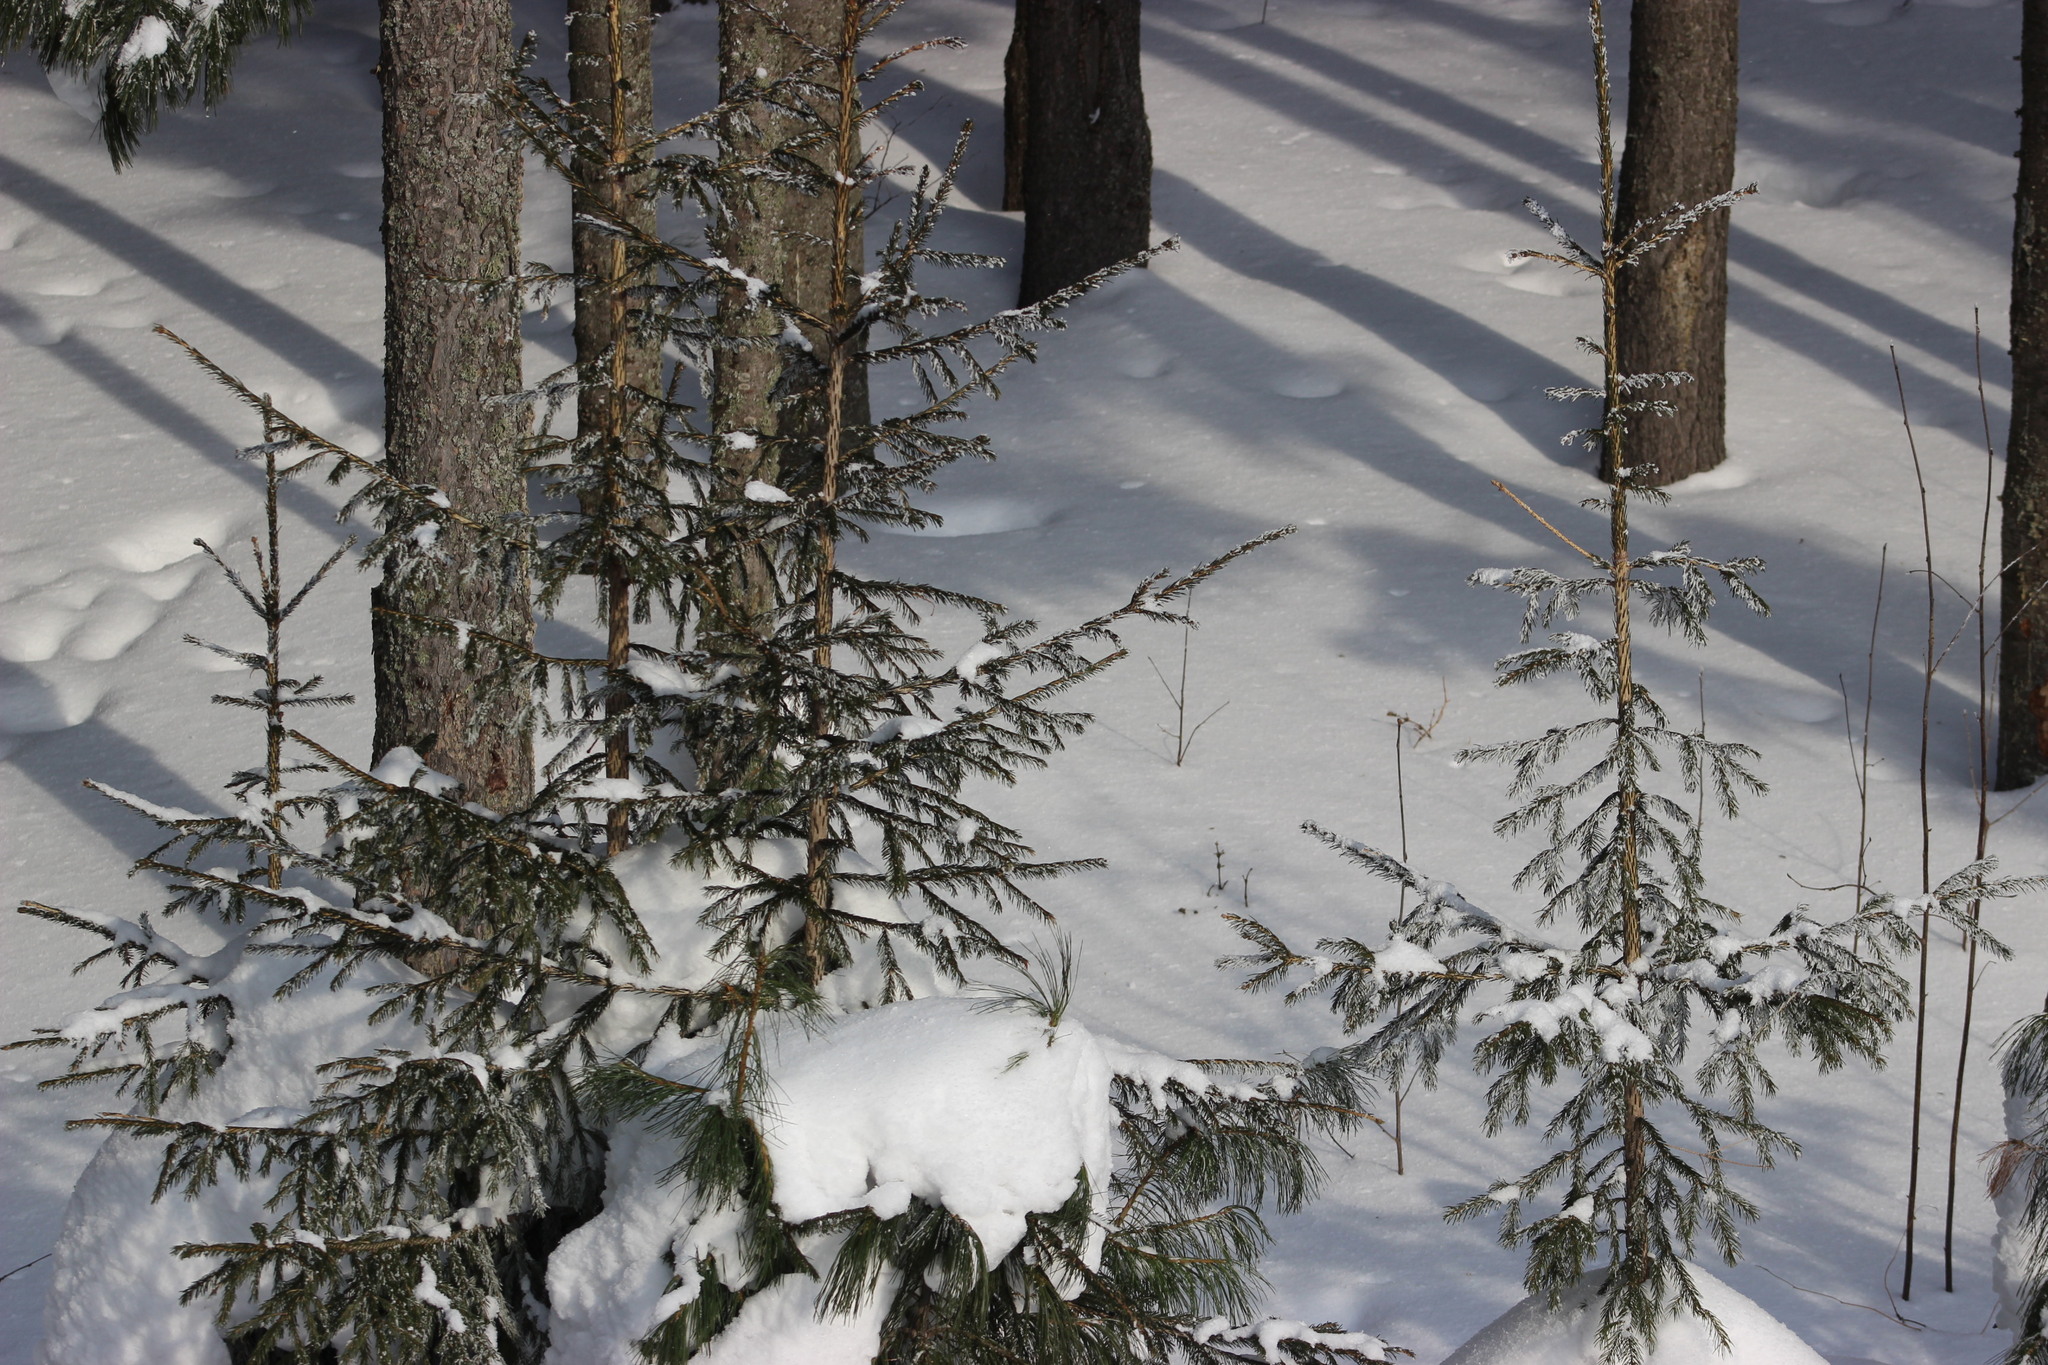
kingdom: Plantae
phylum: Tracheophyta
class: Pinopsida
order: Pinales
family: Pinaceae
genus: Picea
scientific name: Picea obovata
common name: Siberian spruce
